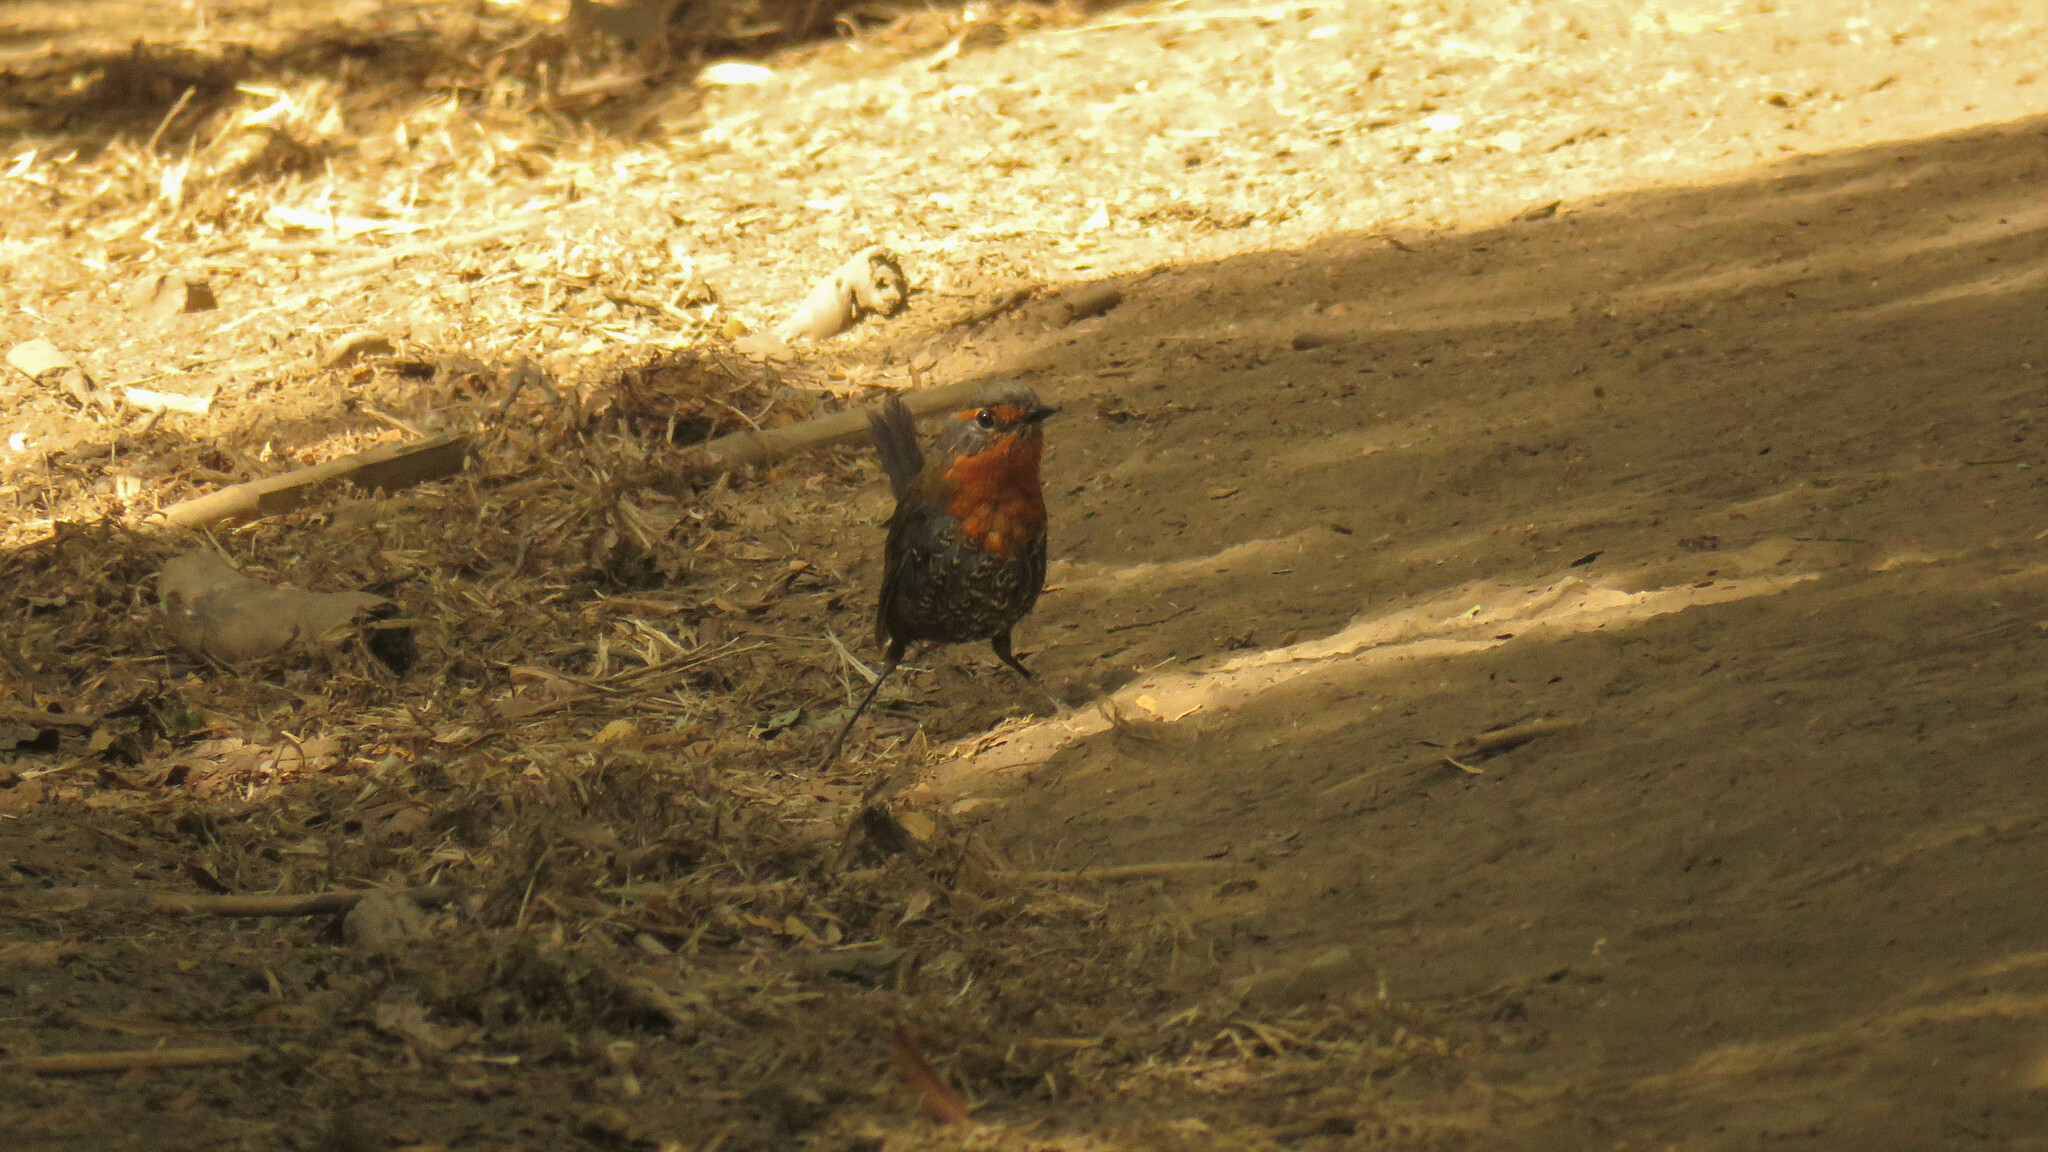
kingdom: Animalia
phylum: Chordata
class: Aves
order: Passeriformes
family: Rhinocryptidae
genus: Scelorchilus
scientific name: Scelorchilus rubecula
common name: Chucao tapaculo
